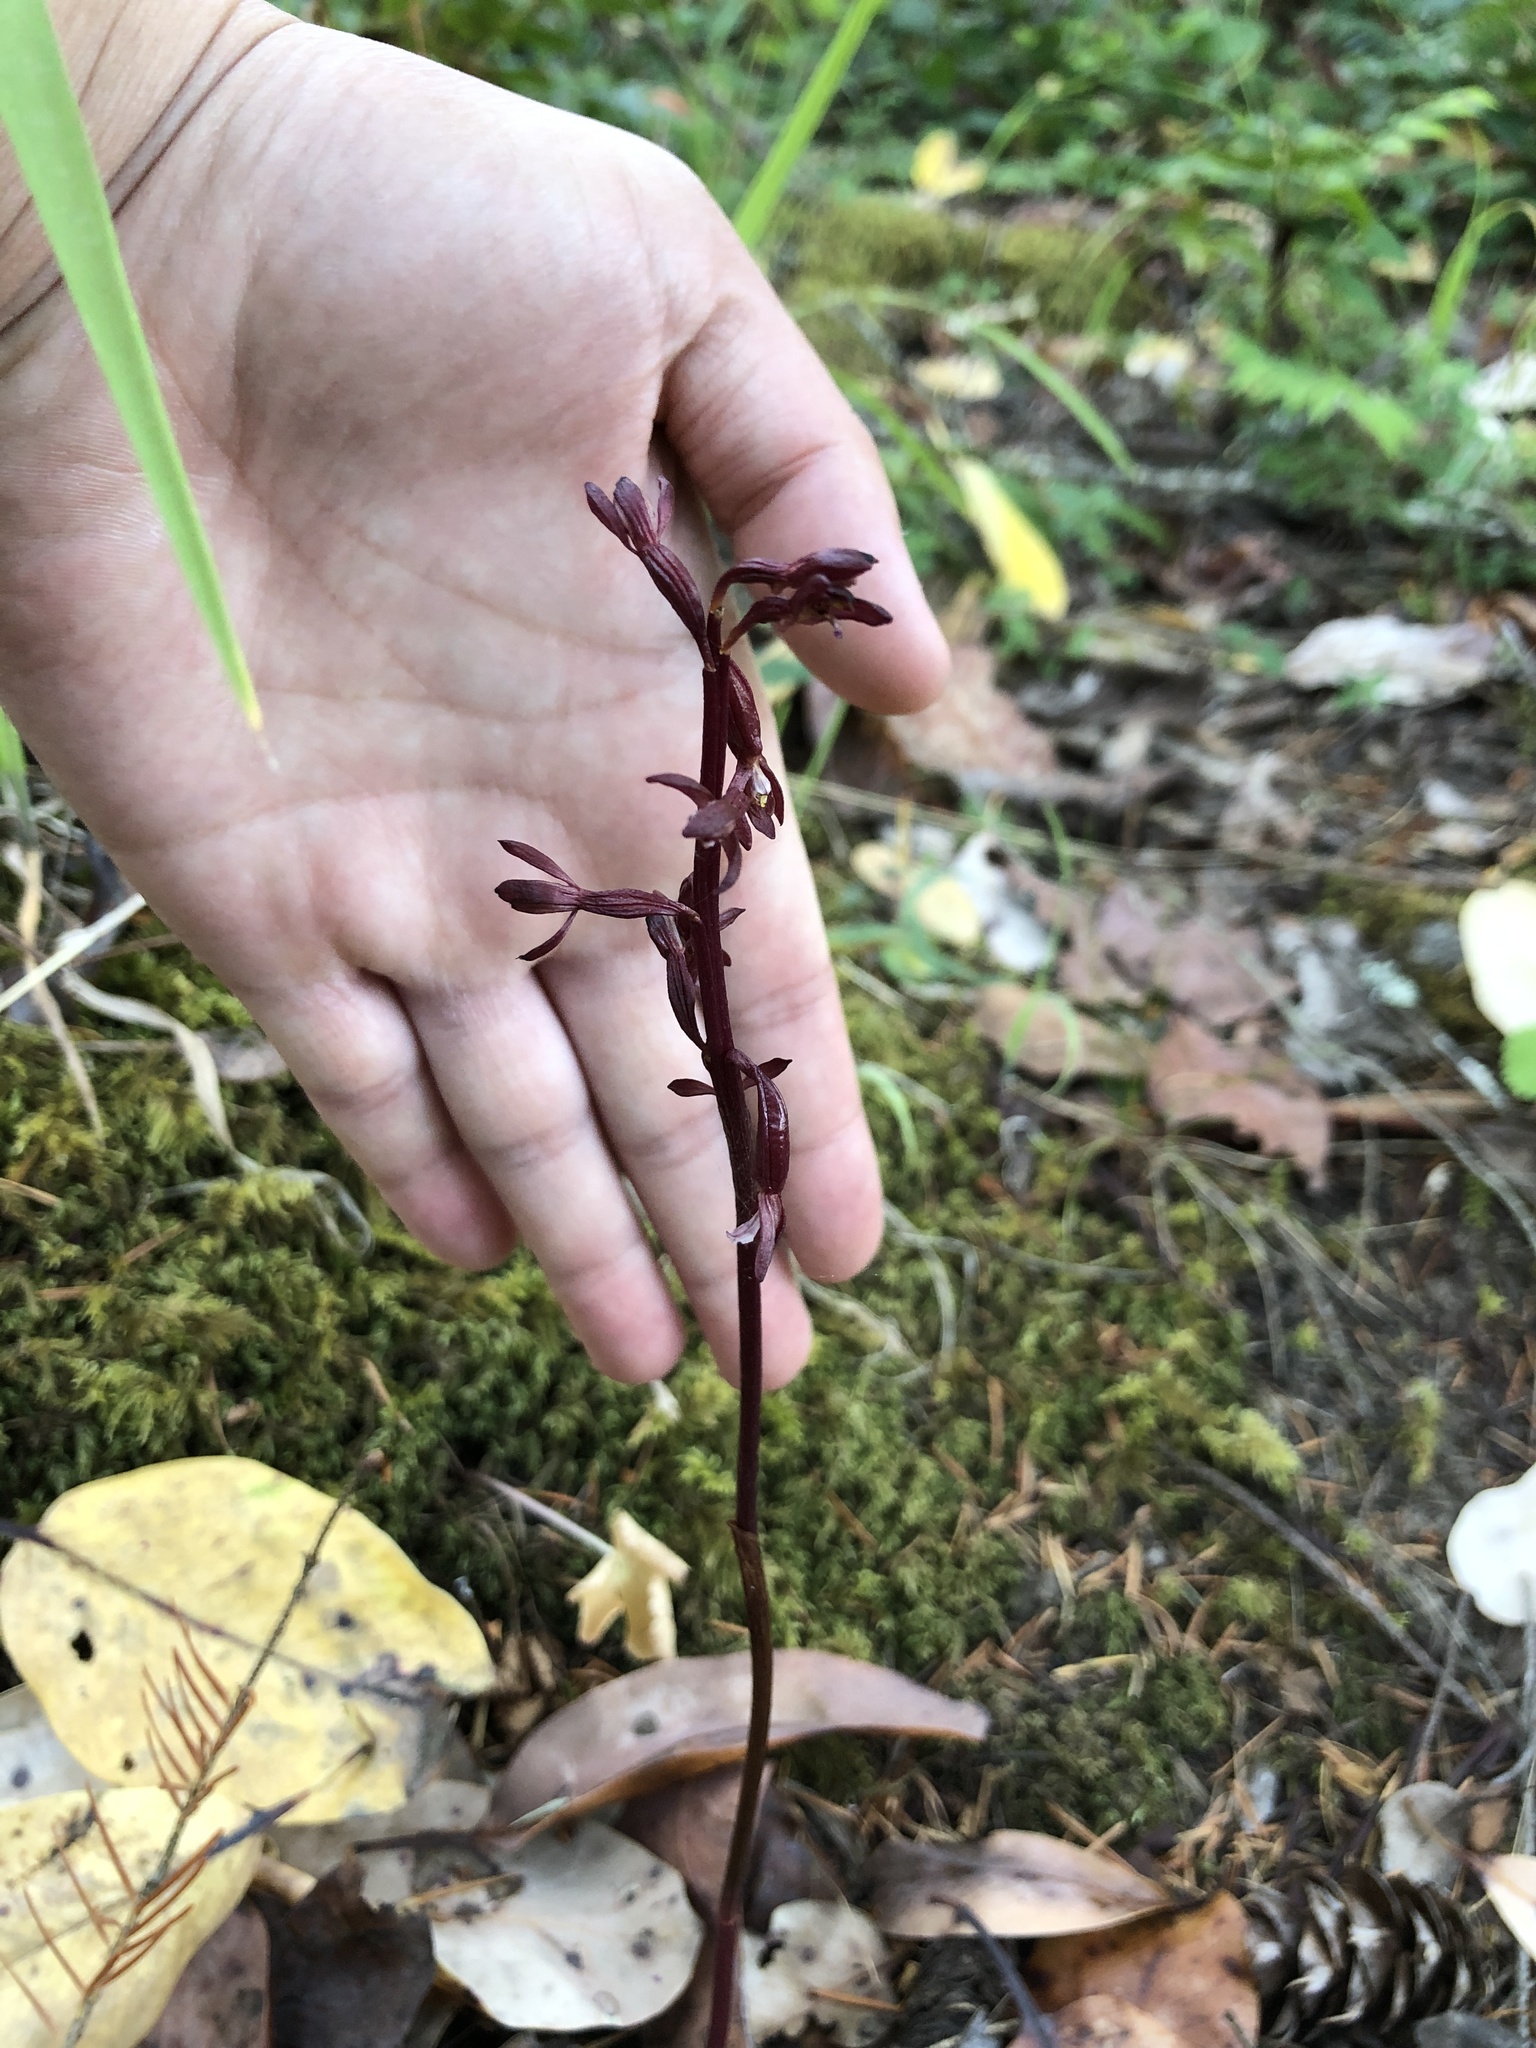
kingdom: Plantae
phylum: Tracheophyta
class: Liliopsida
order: Asparagales
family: Orchidaceae
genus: Corallorhiza
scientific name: Corallorhiza maculata
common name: Spotted coralroot
